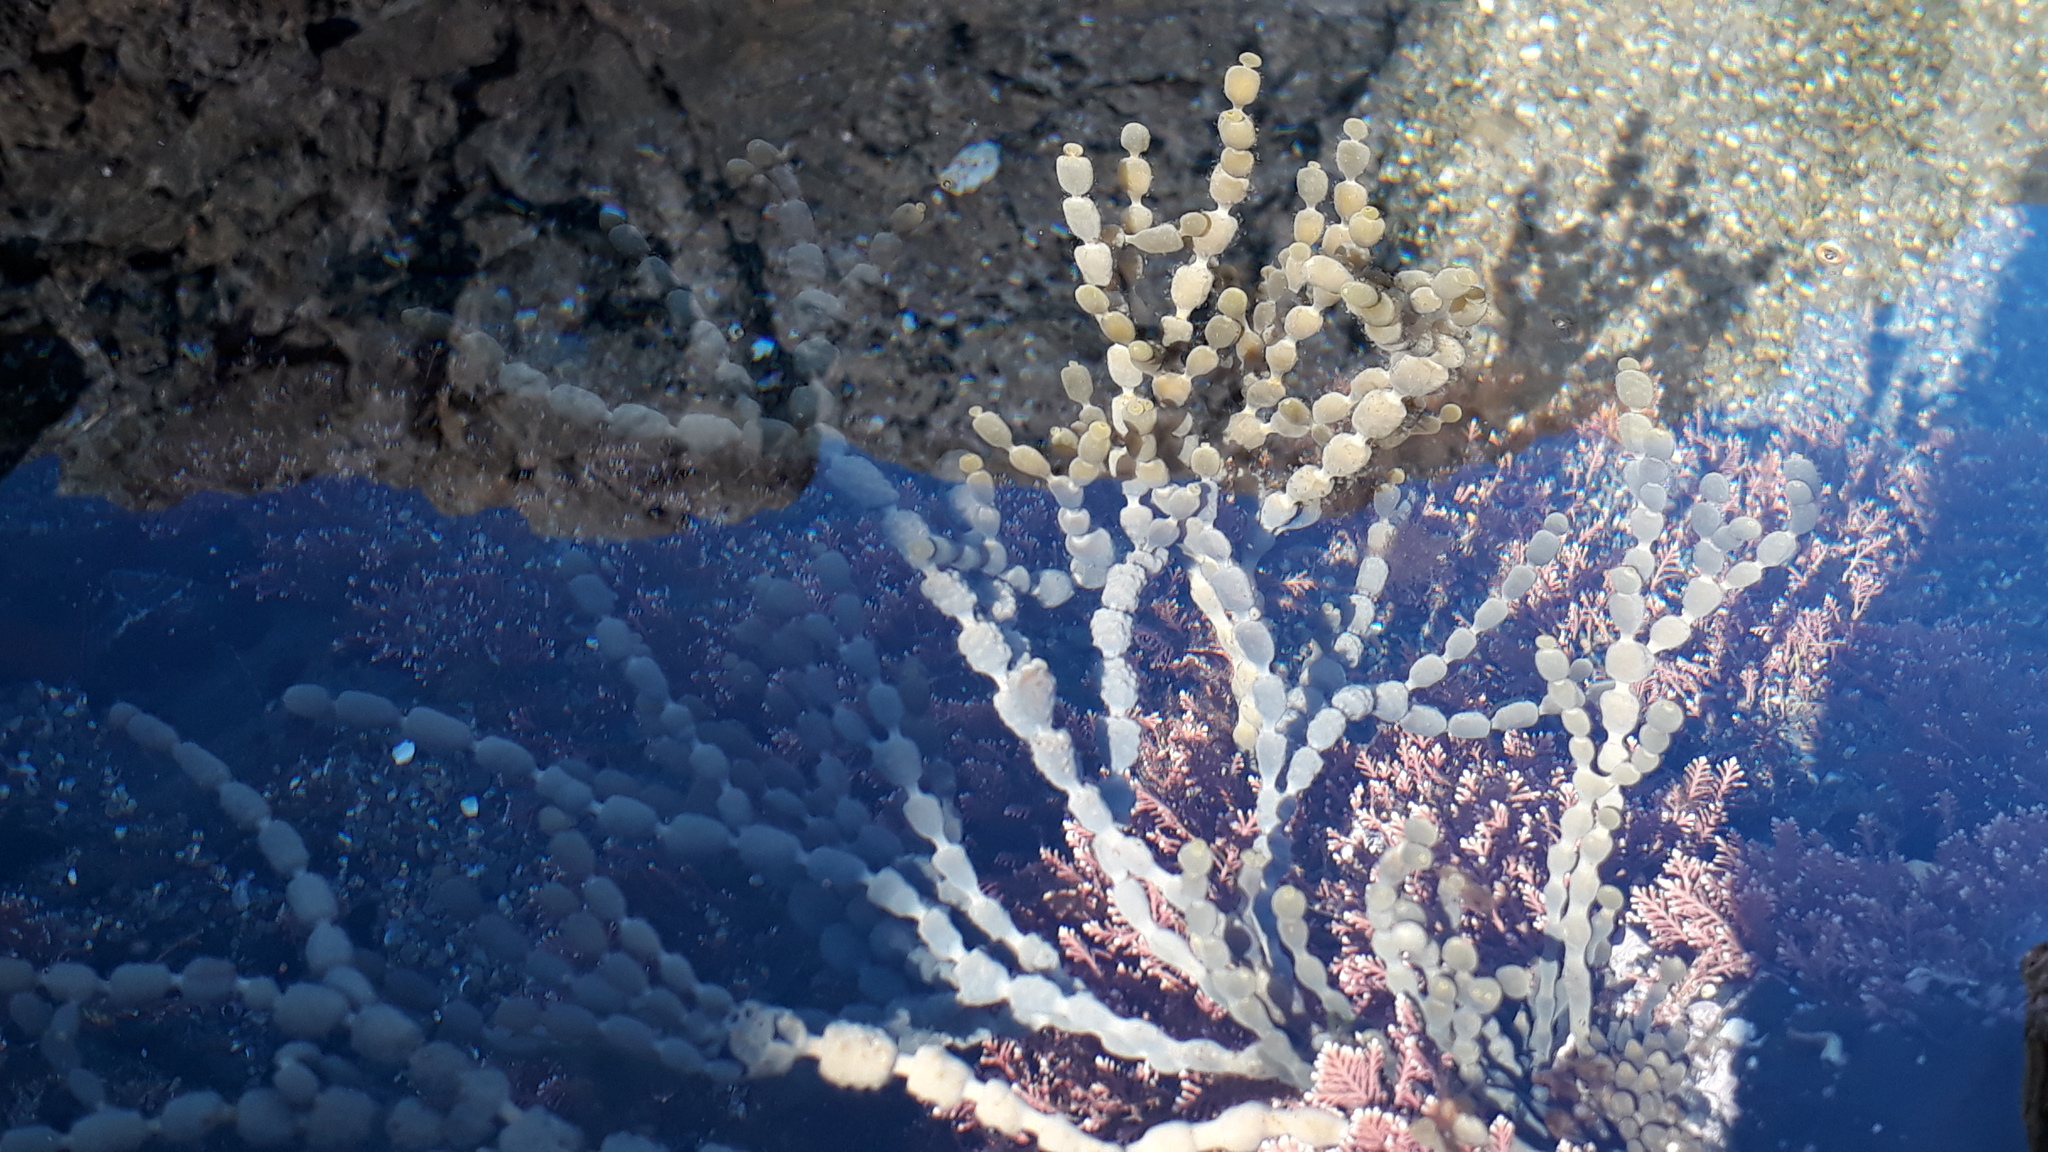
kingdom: Chromista
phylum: Ochrophyta
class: Phaeophyceae
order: Fucales
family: Hormosiraceae
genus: Hormosira
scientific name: Hormosira banksii
